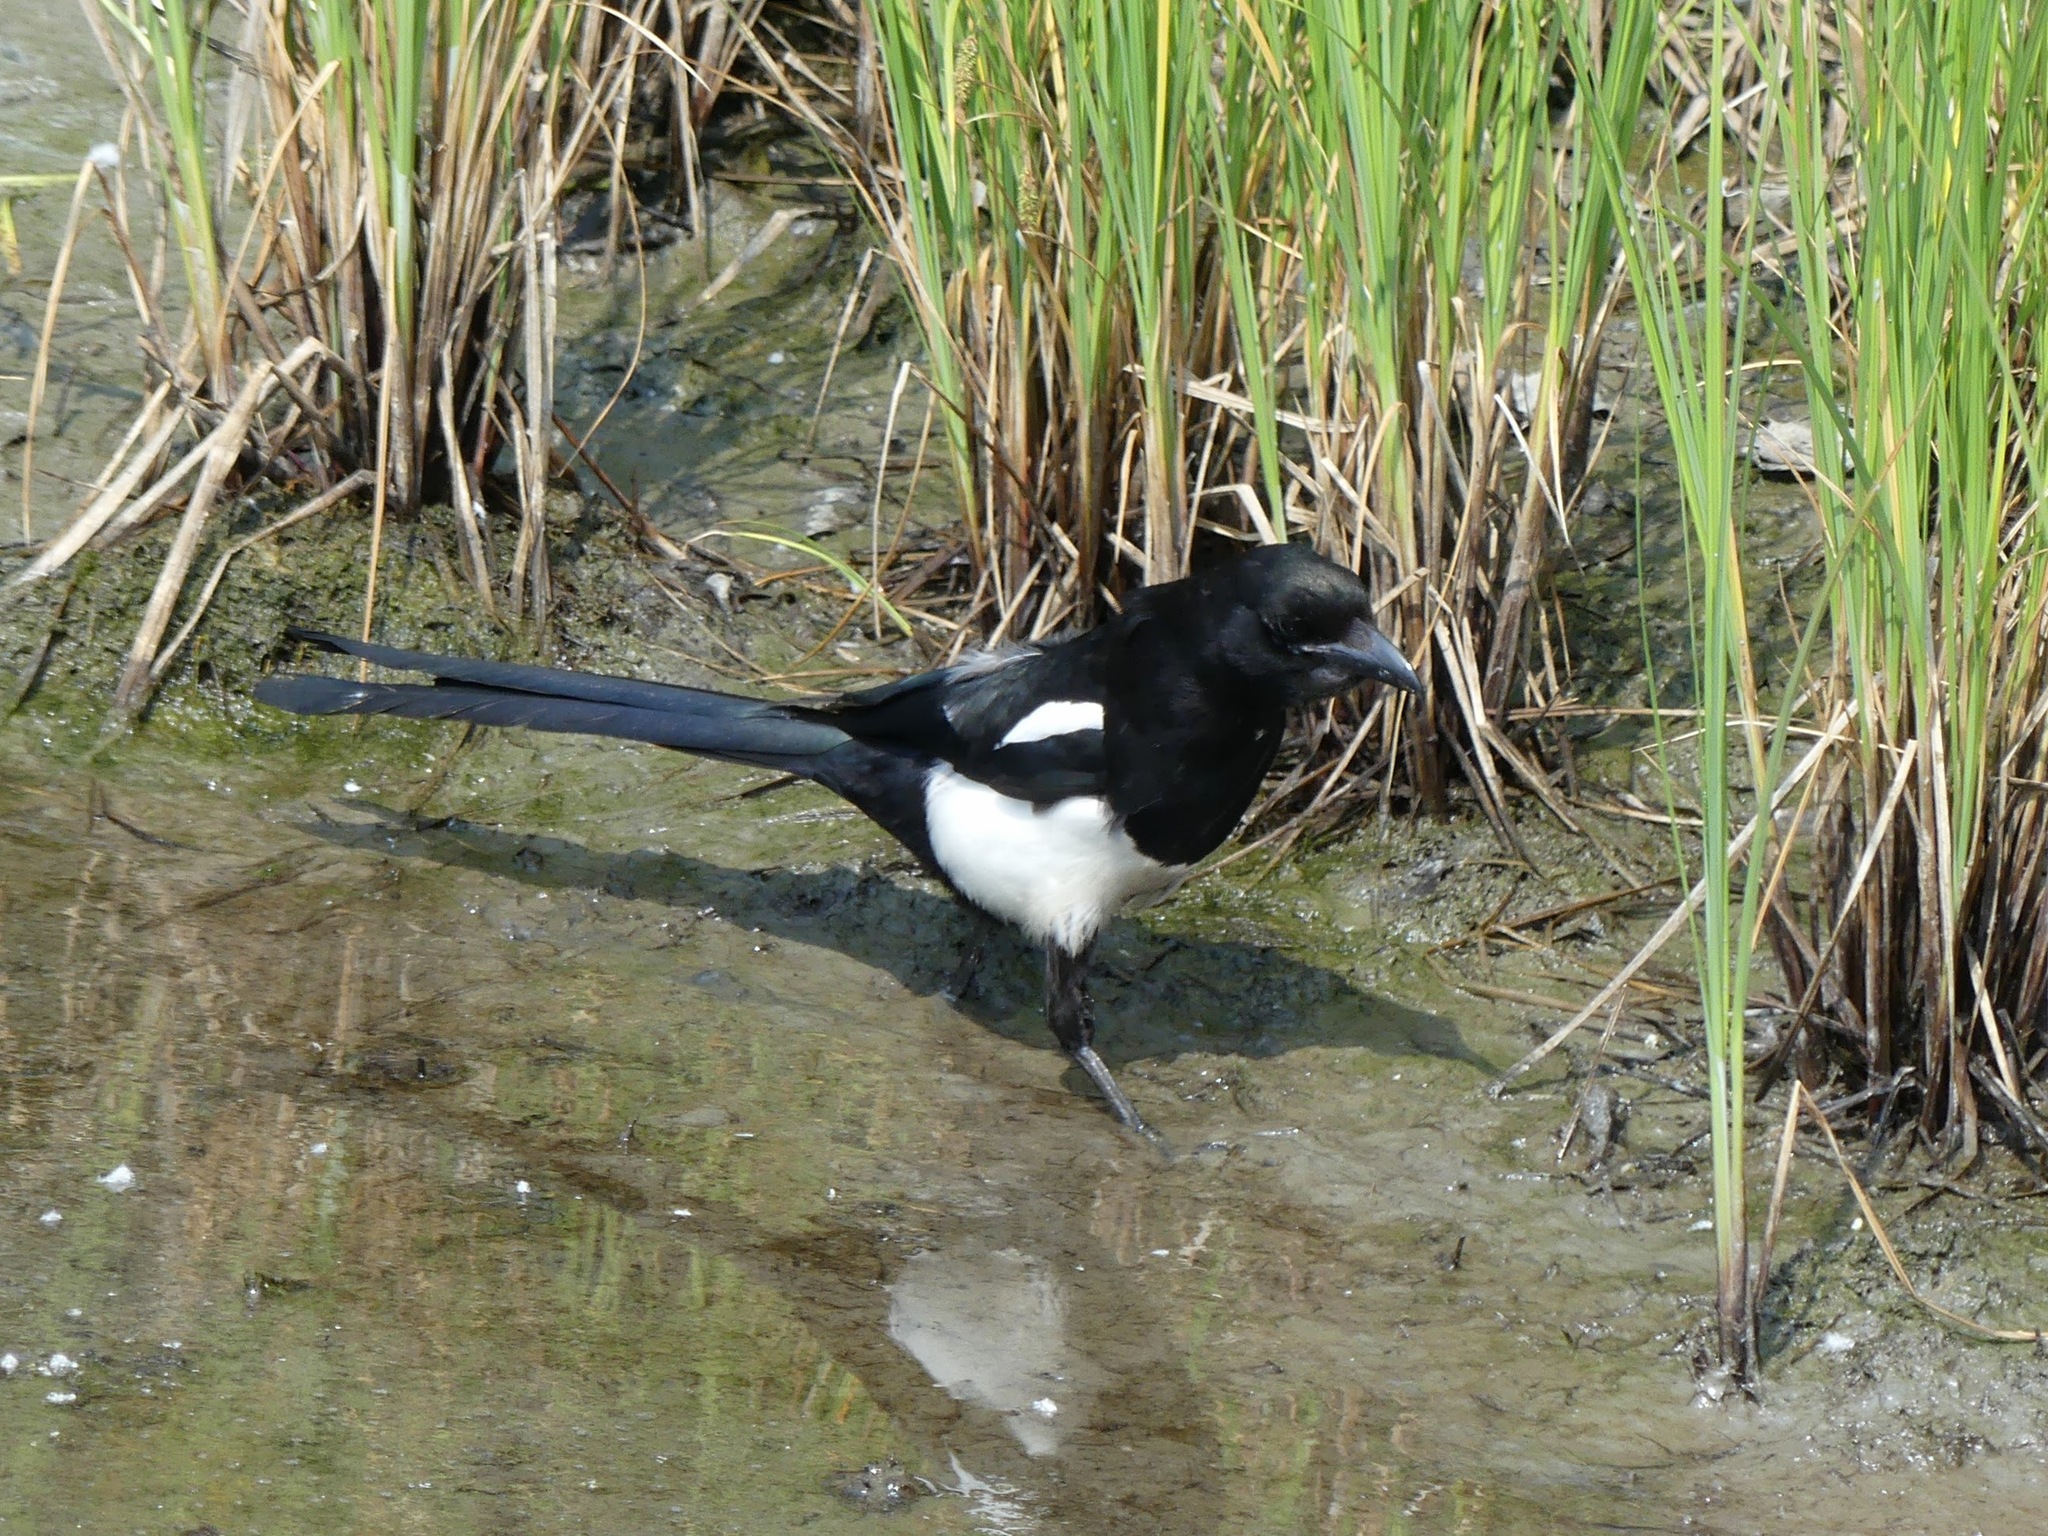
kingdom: Animalia
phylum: Chordata
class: Aves
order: Passeriformes
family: Corvidae
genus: Pica
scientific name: Pica hudsonia
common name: Black-billed magpie
